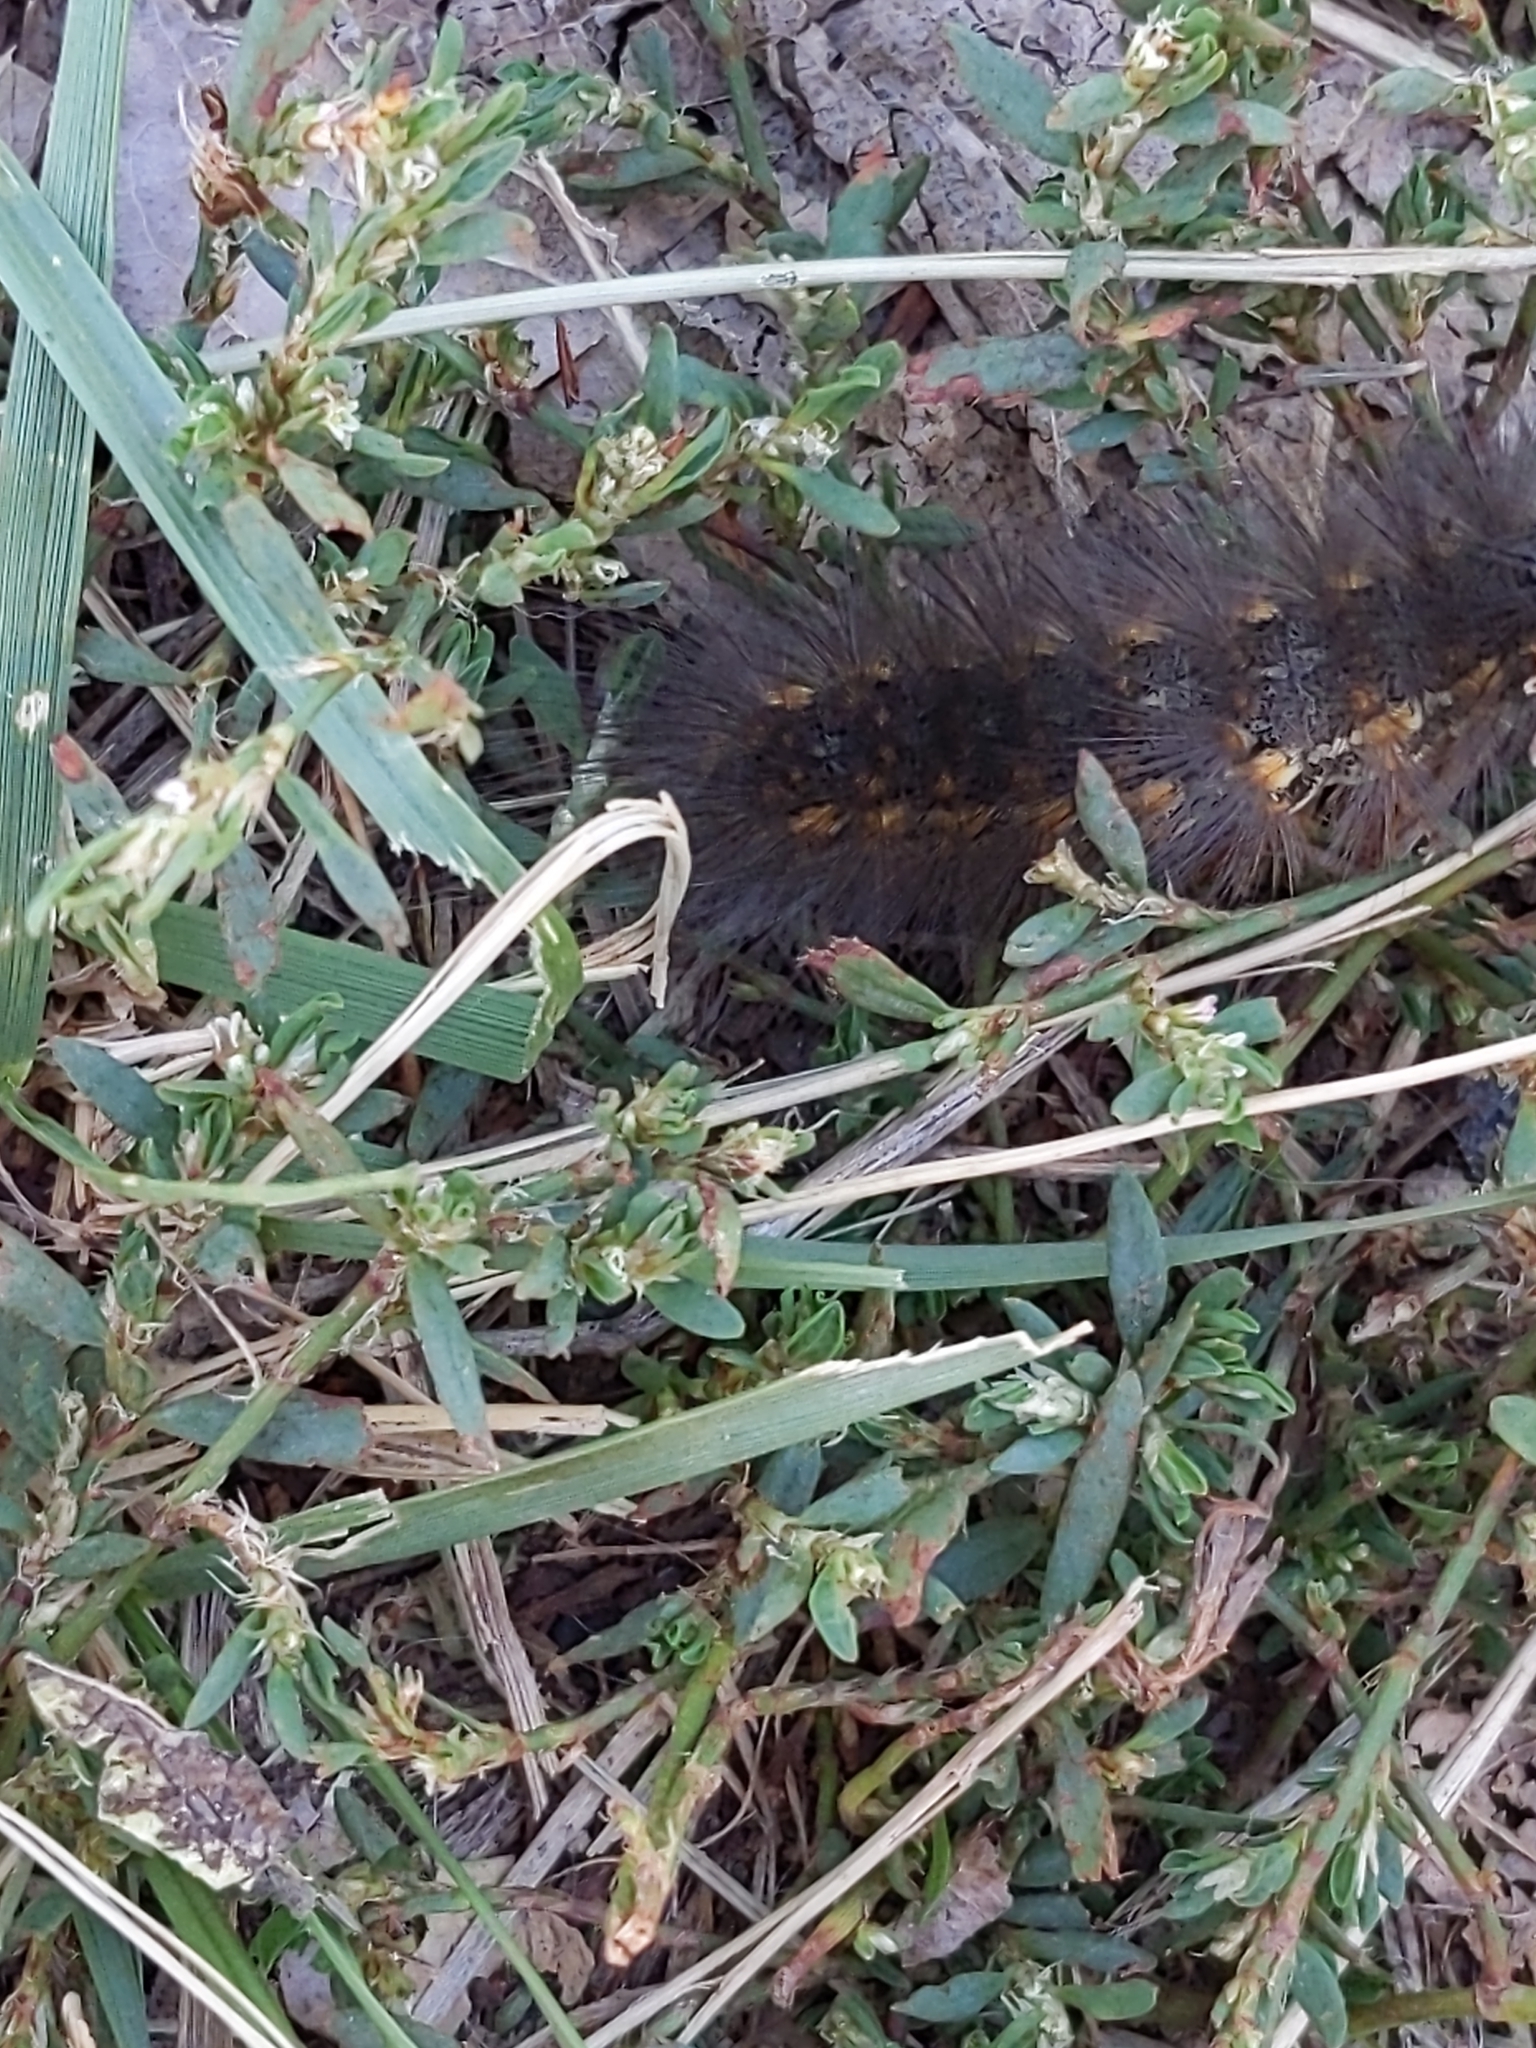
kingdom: Animalia
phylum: Arthropoda
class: Insecta
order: Lepidoptera
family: Erebidae
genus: Estigmene
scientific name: Estigmene
